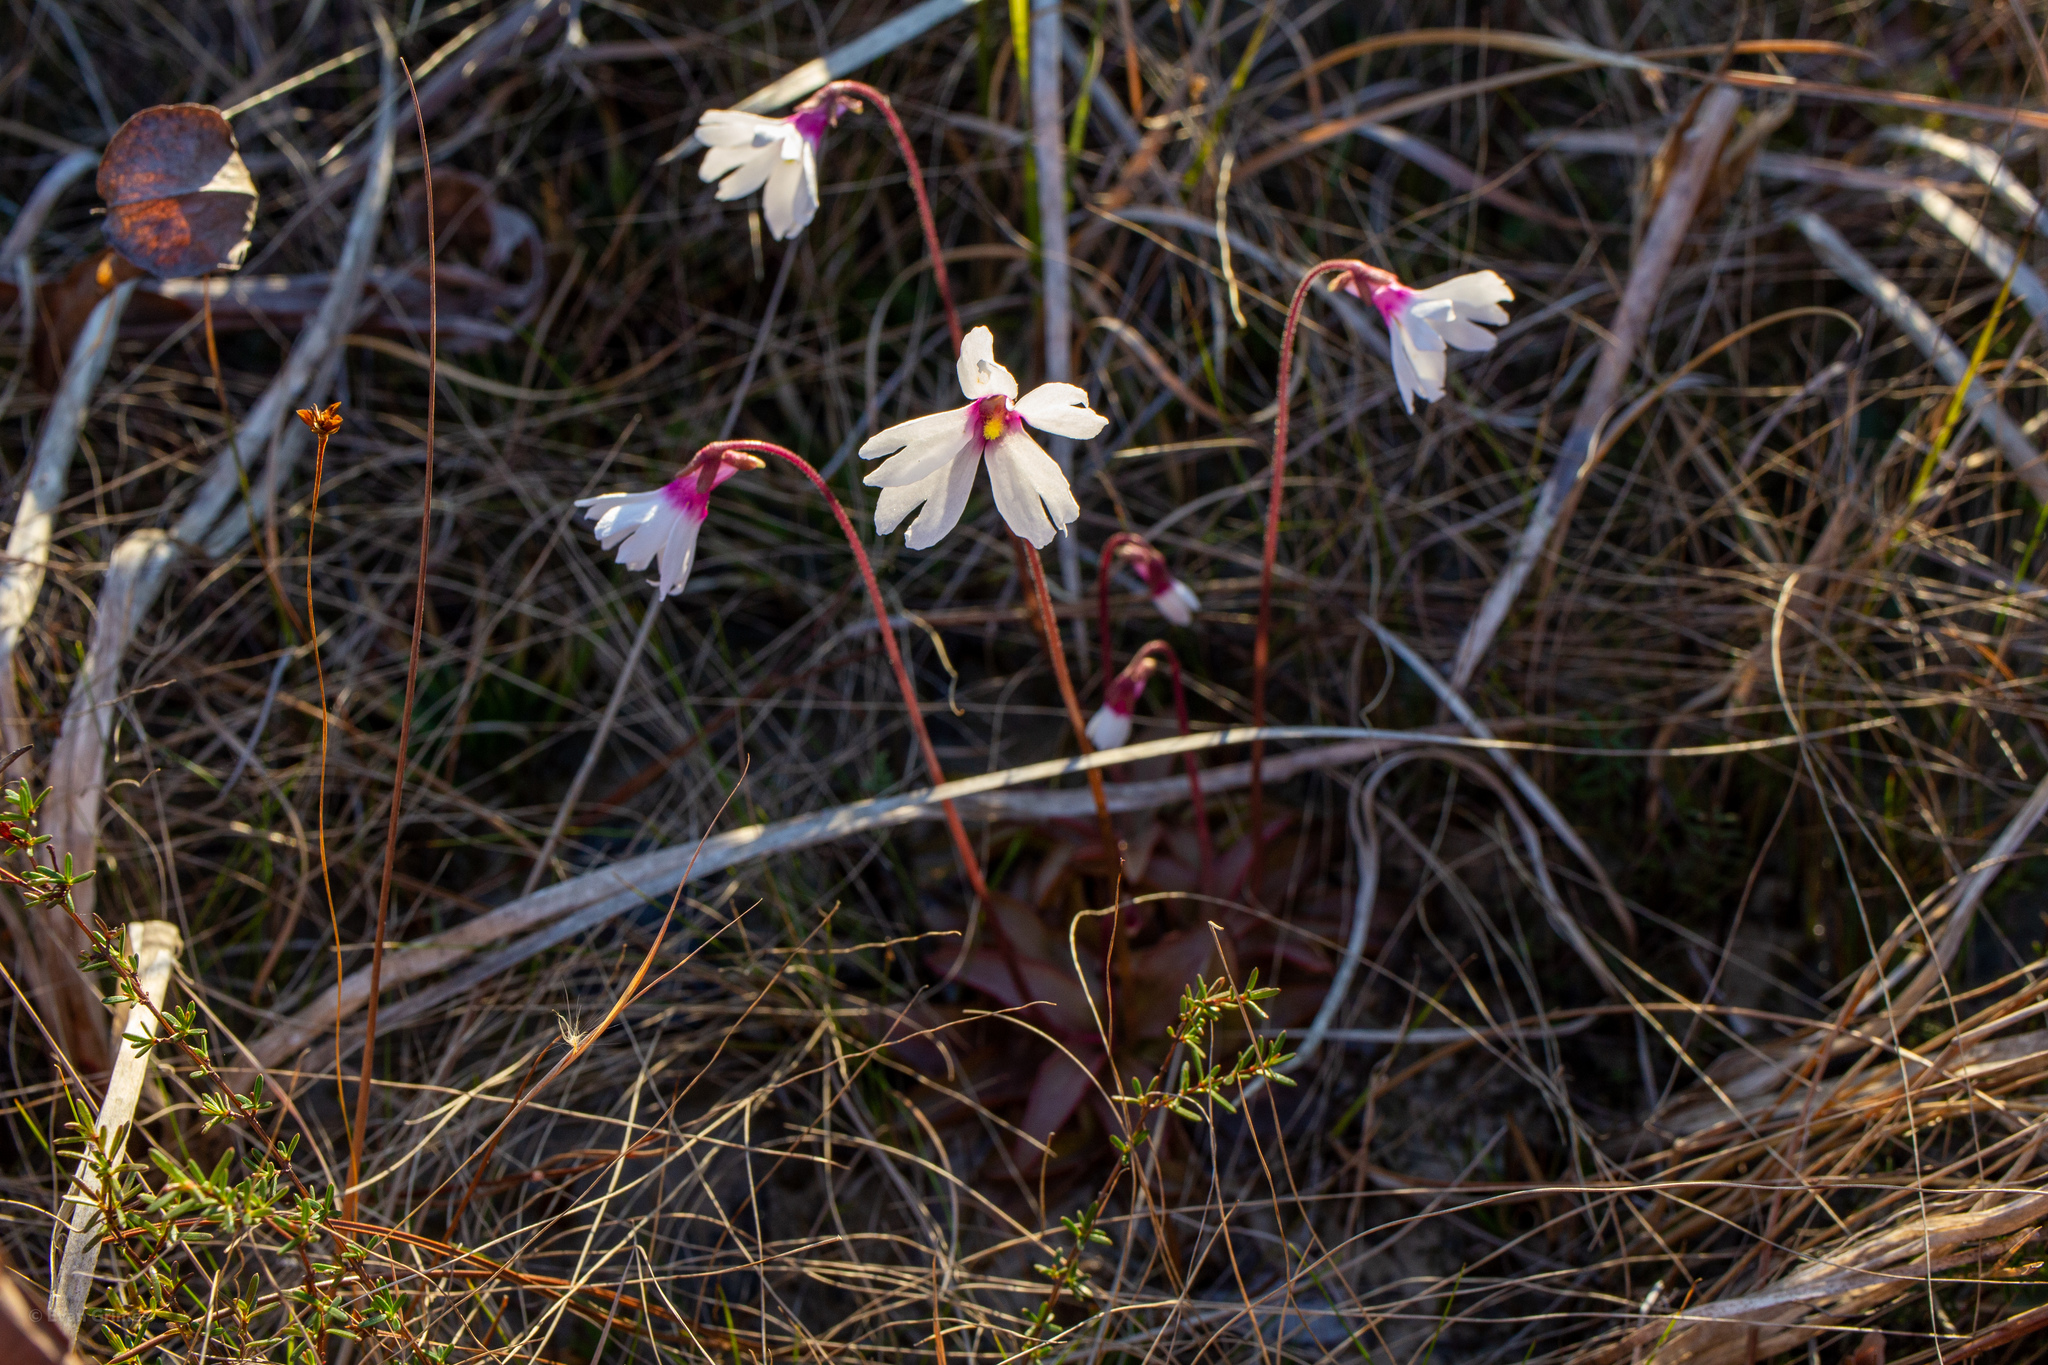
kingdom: Plantae
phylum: Tracheophyta
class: Magnoliopsida
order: Lamiales
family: Lentibulariaceae
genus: Pinguicula
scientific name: Pinguicula planifolia
